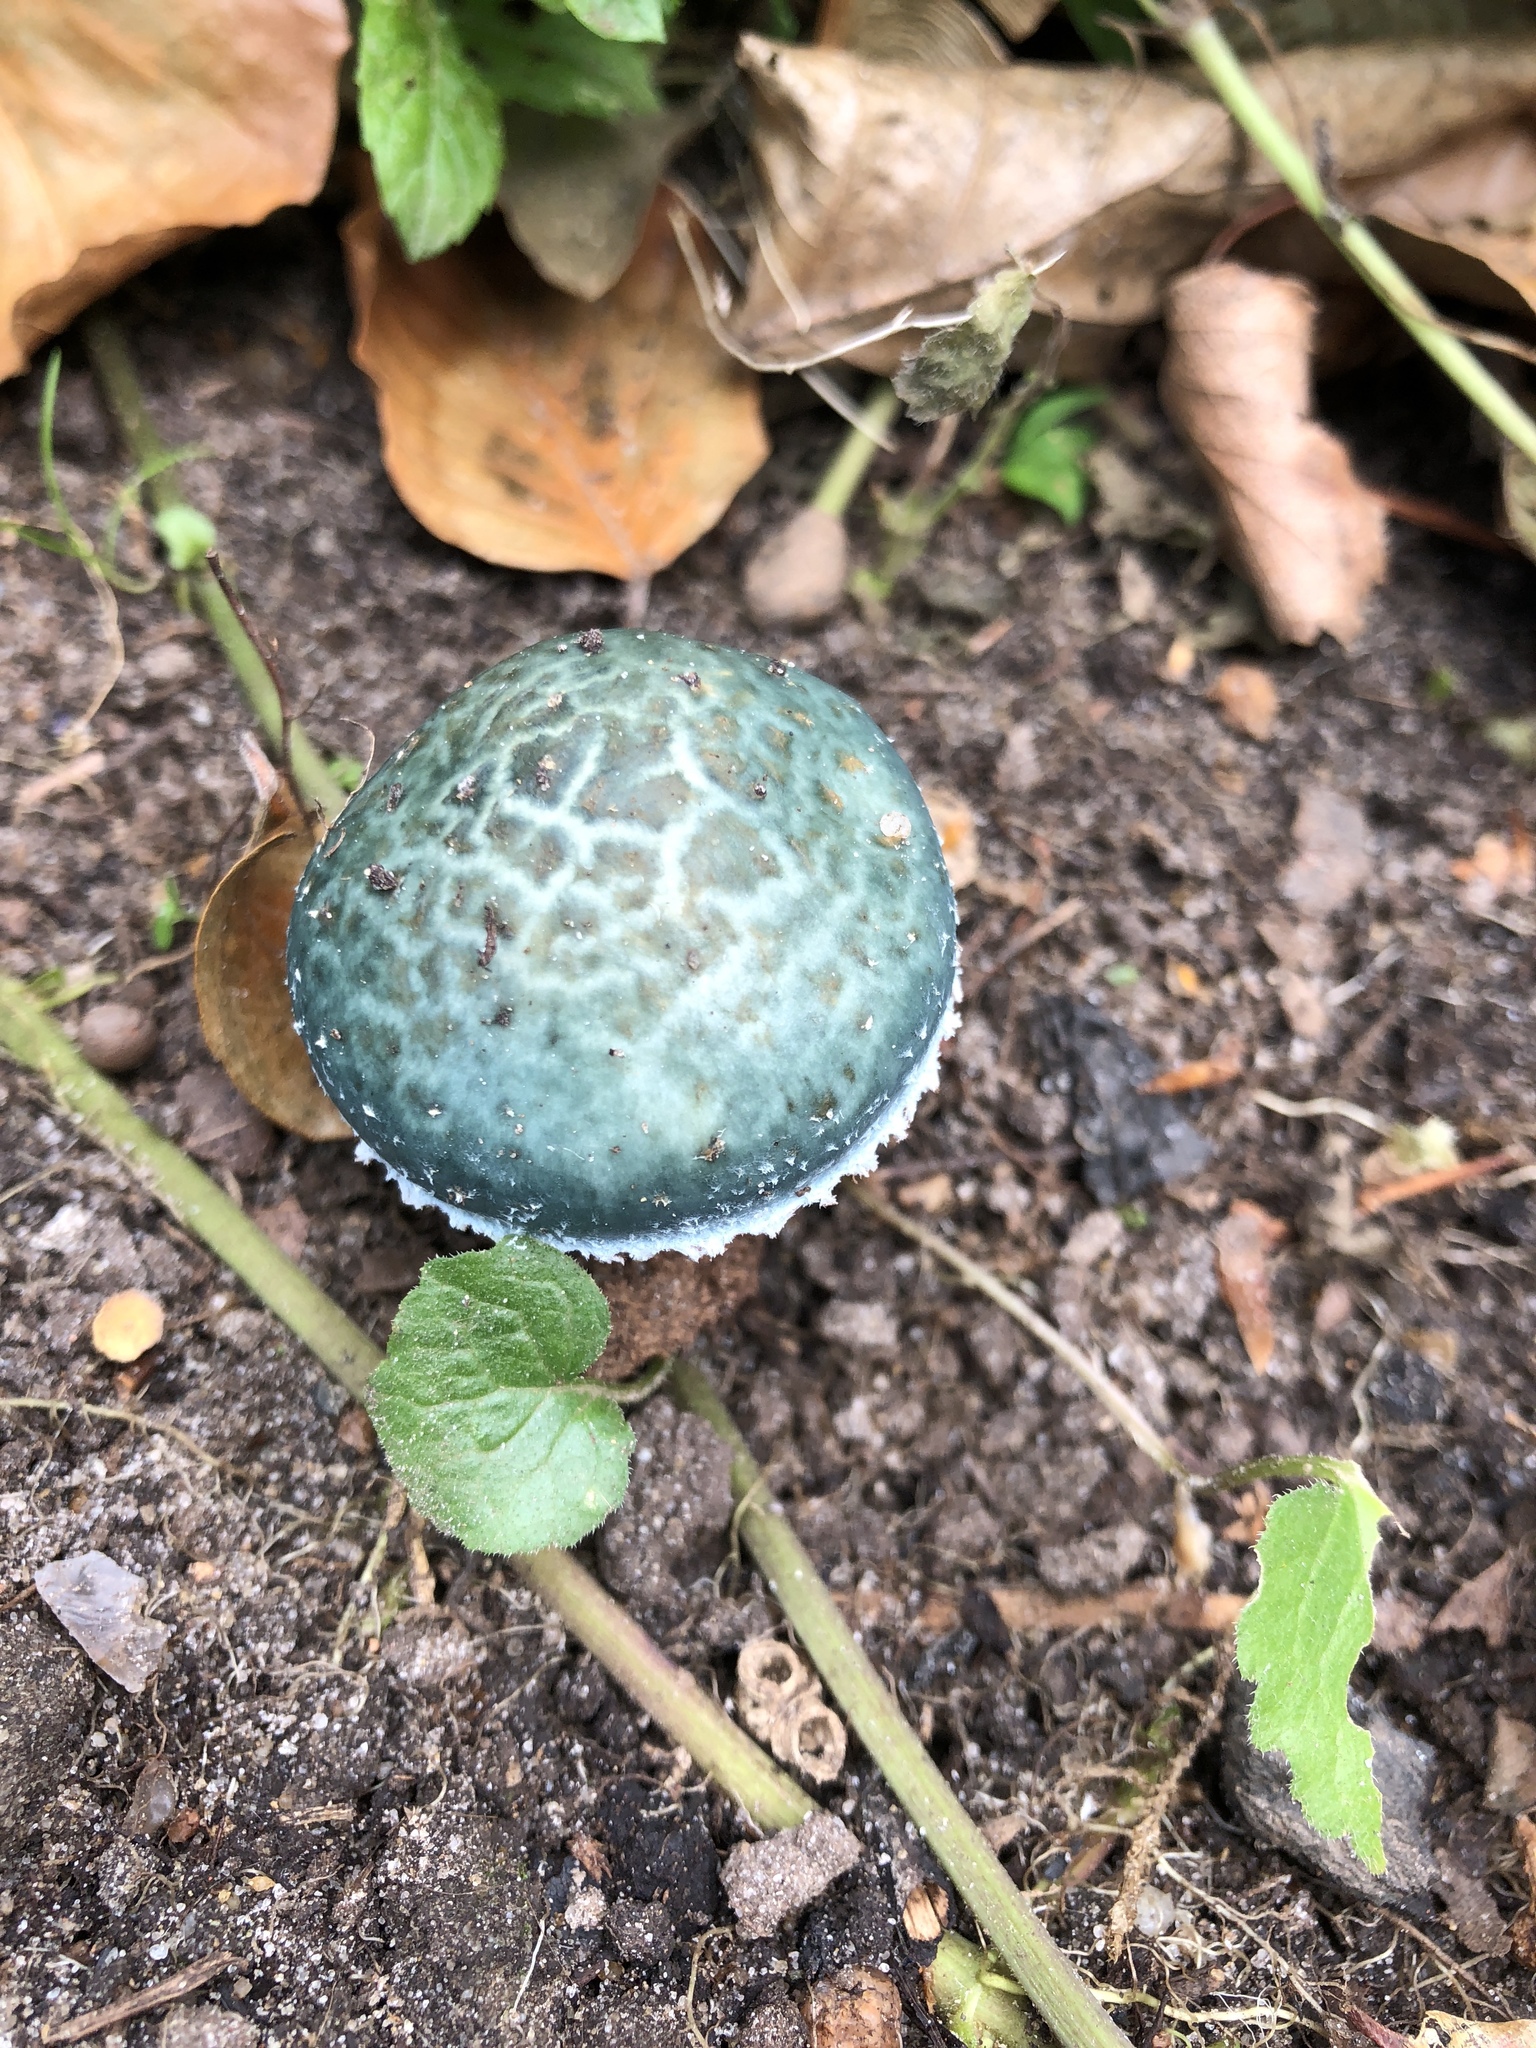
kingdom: Fungi
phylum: Basidiomycota
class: Agaricomycetes
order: Agaricales
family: Strophariaceae
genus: Stropharia
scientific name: Stropharia aeruginosa
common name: Verdigris roundhead
